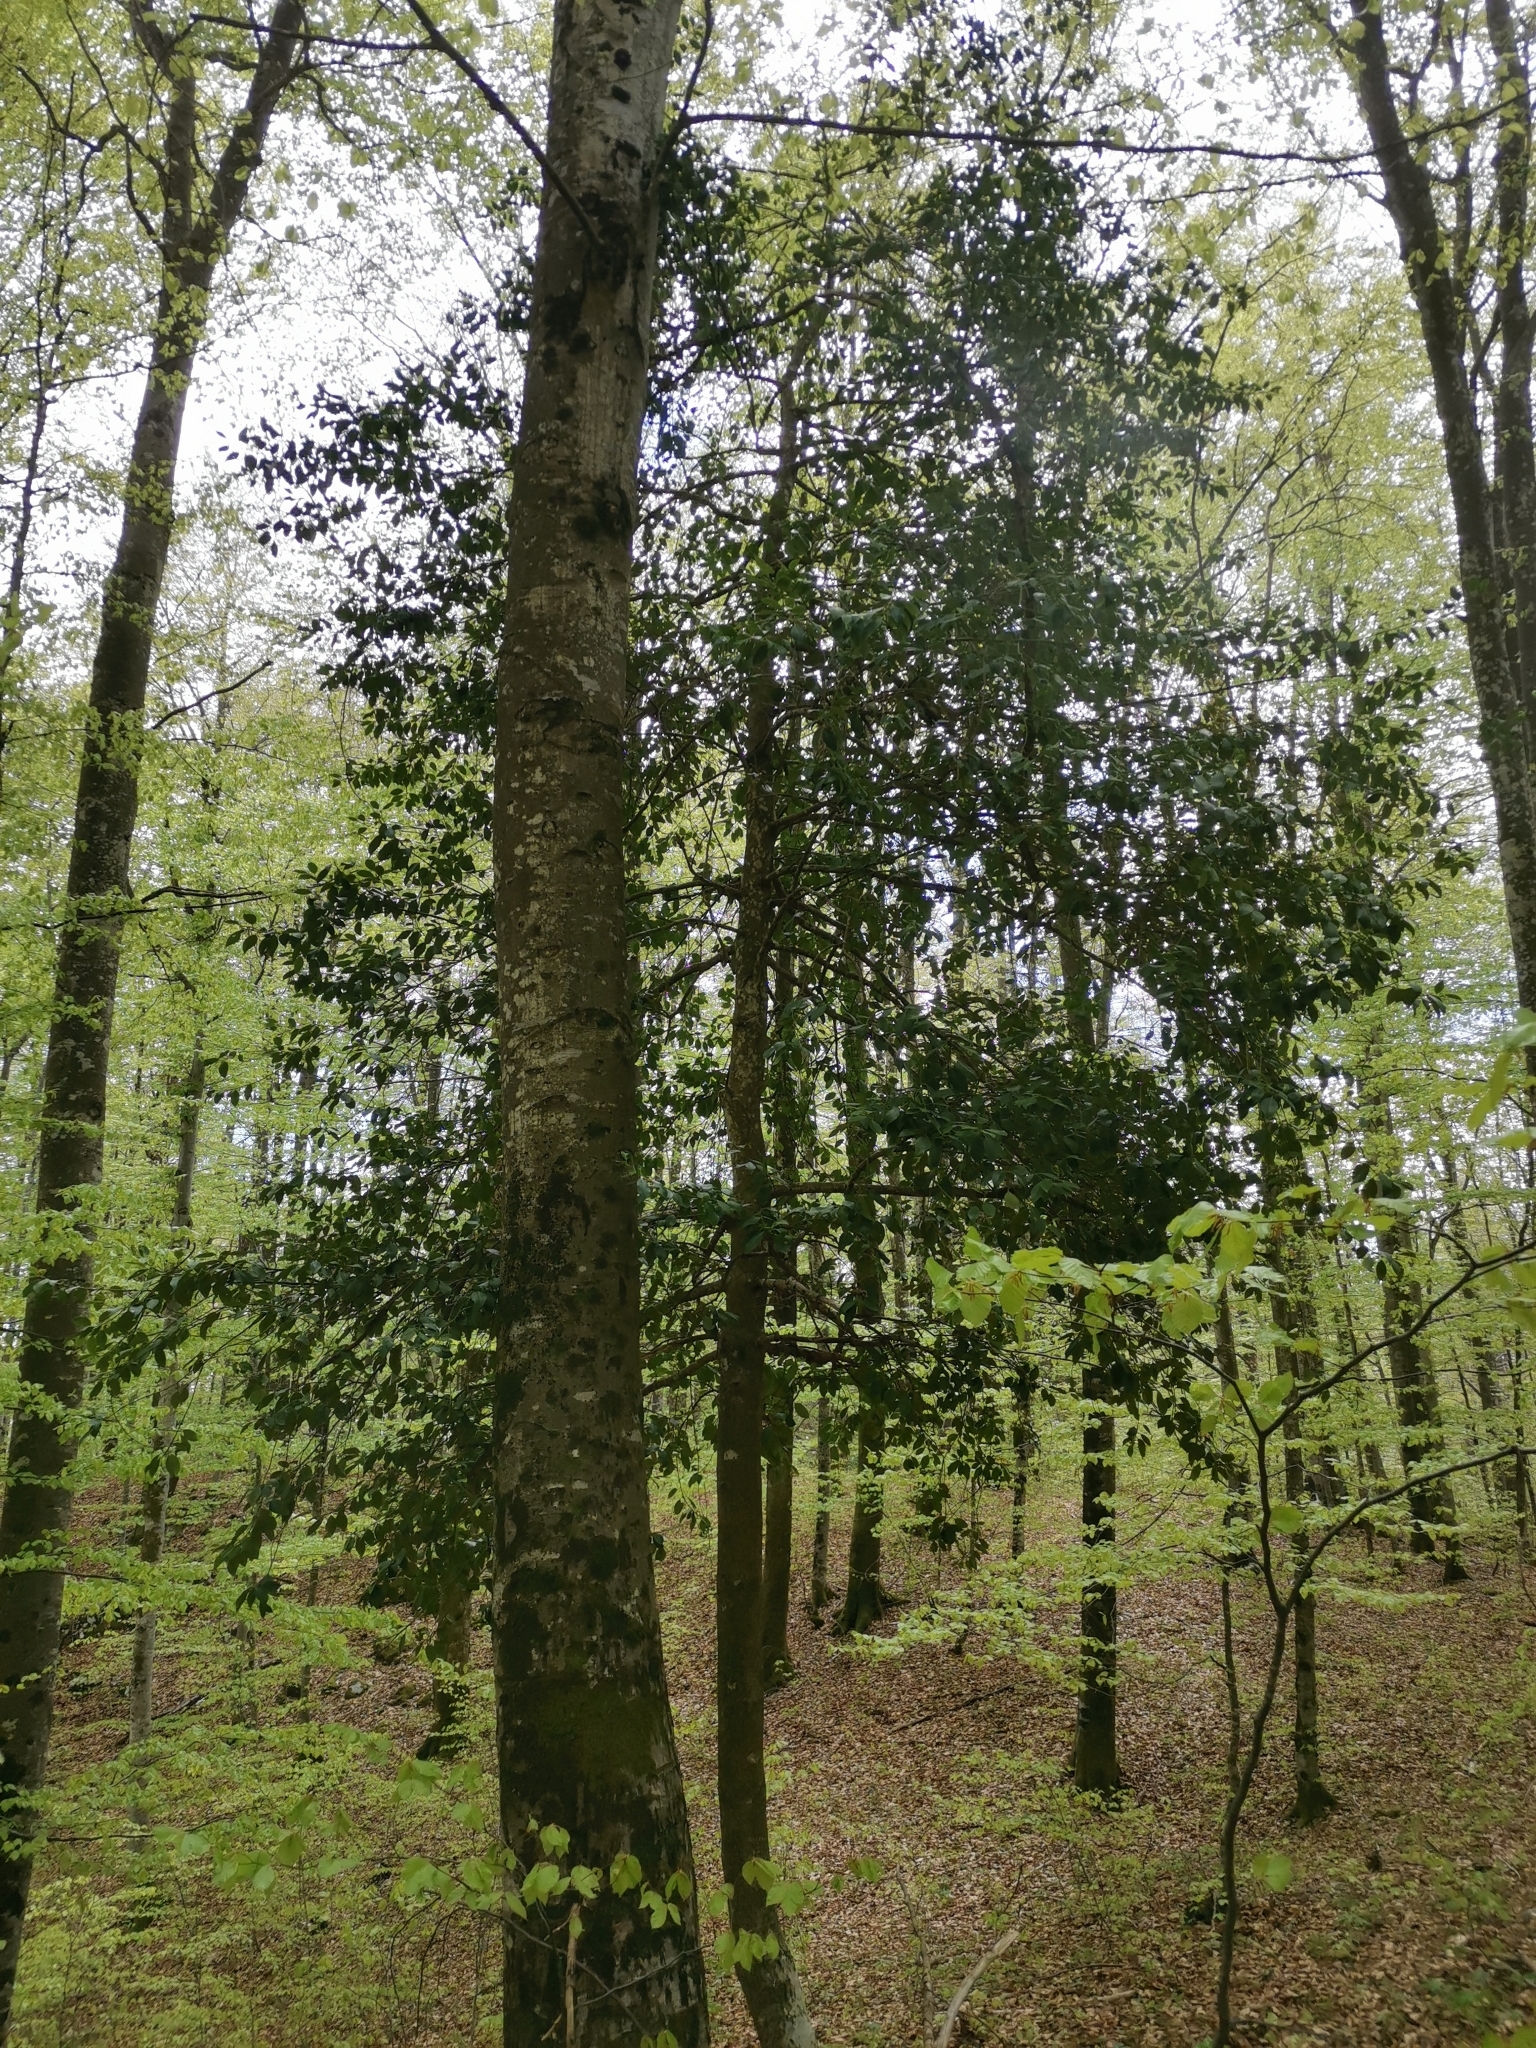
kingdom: Plantae
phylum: Tracheophyta
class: Magnoliopsida
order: Aquifoliales
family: Aquifoliaceae
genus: Ilex
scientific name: Ilex aquifolium
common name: English holly
